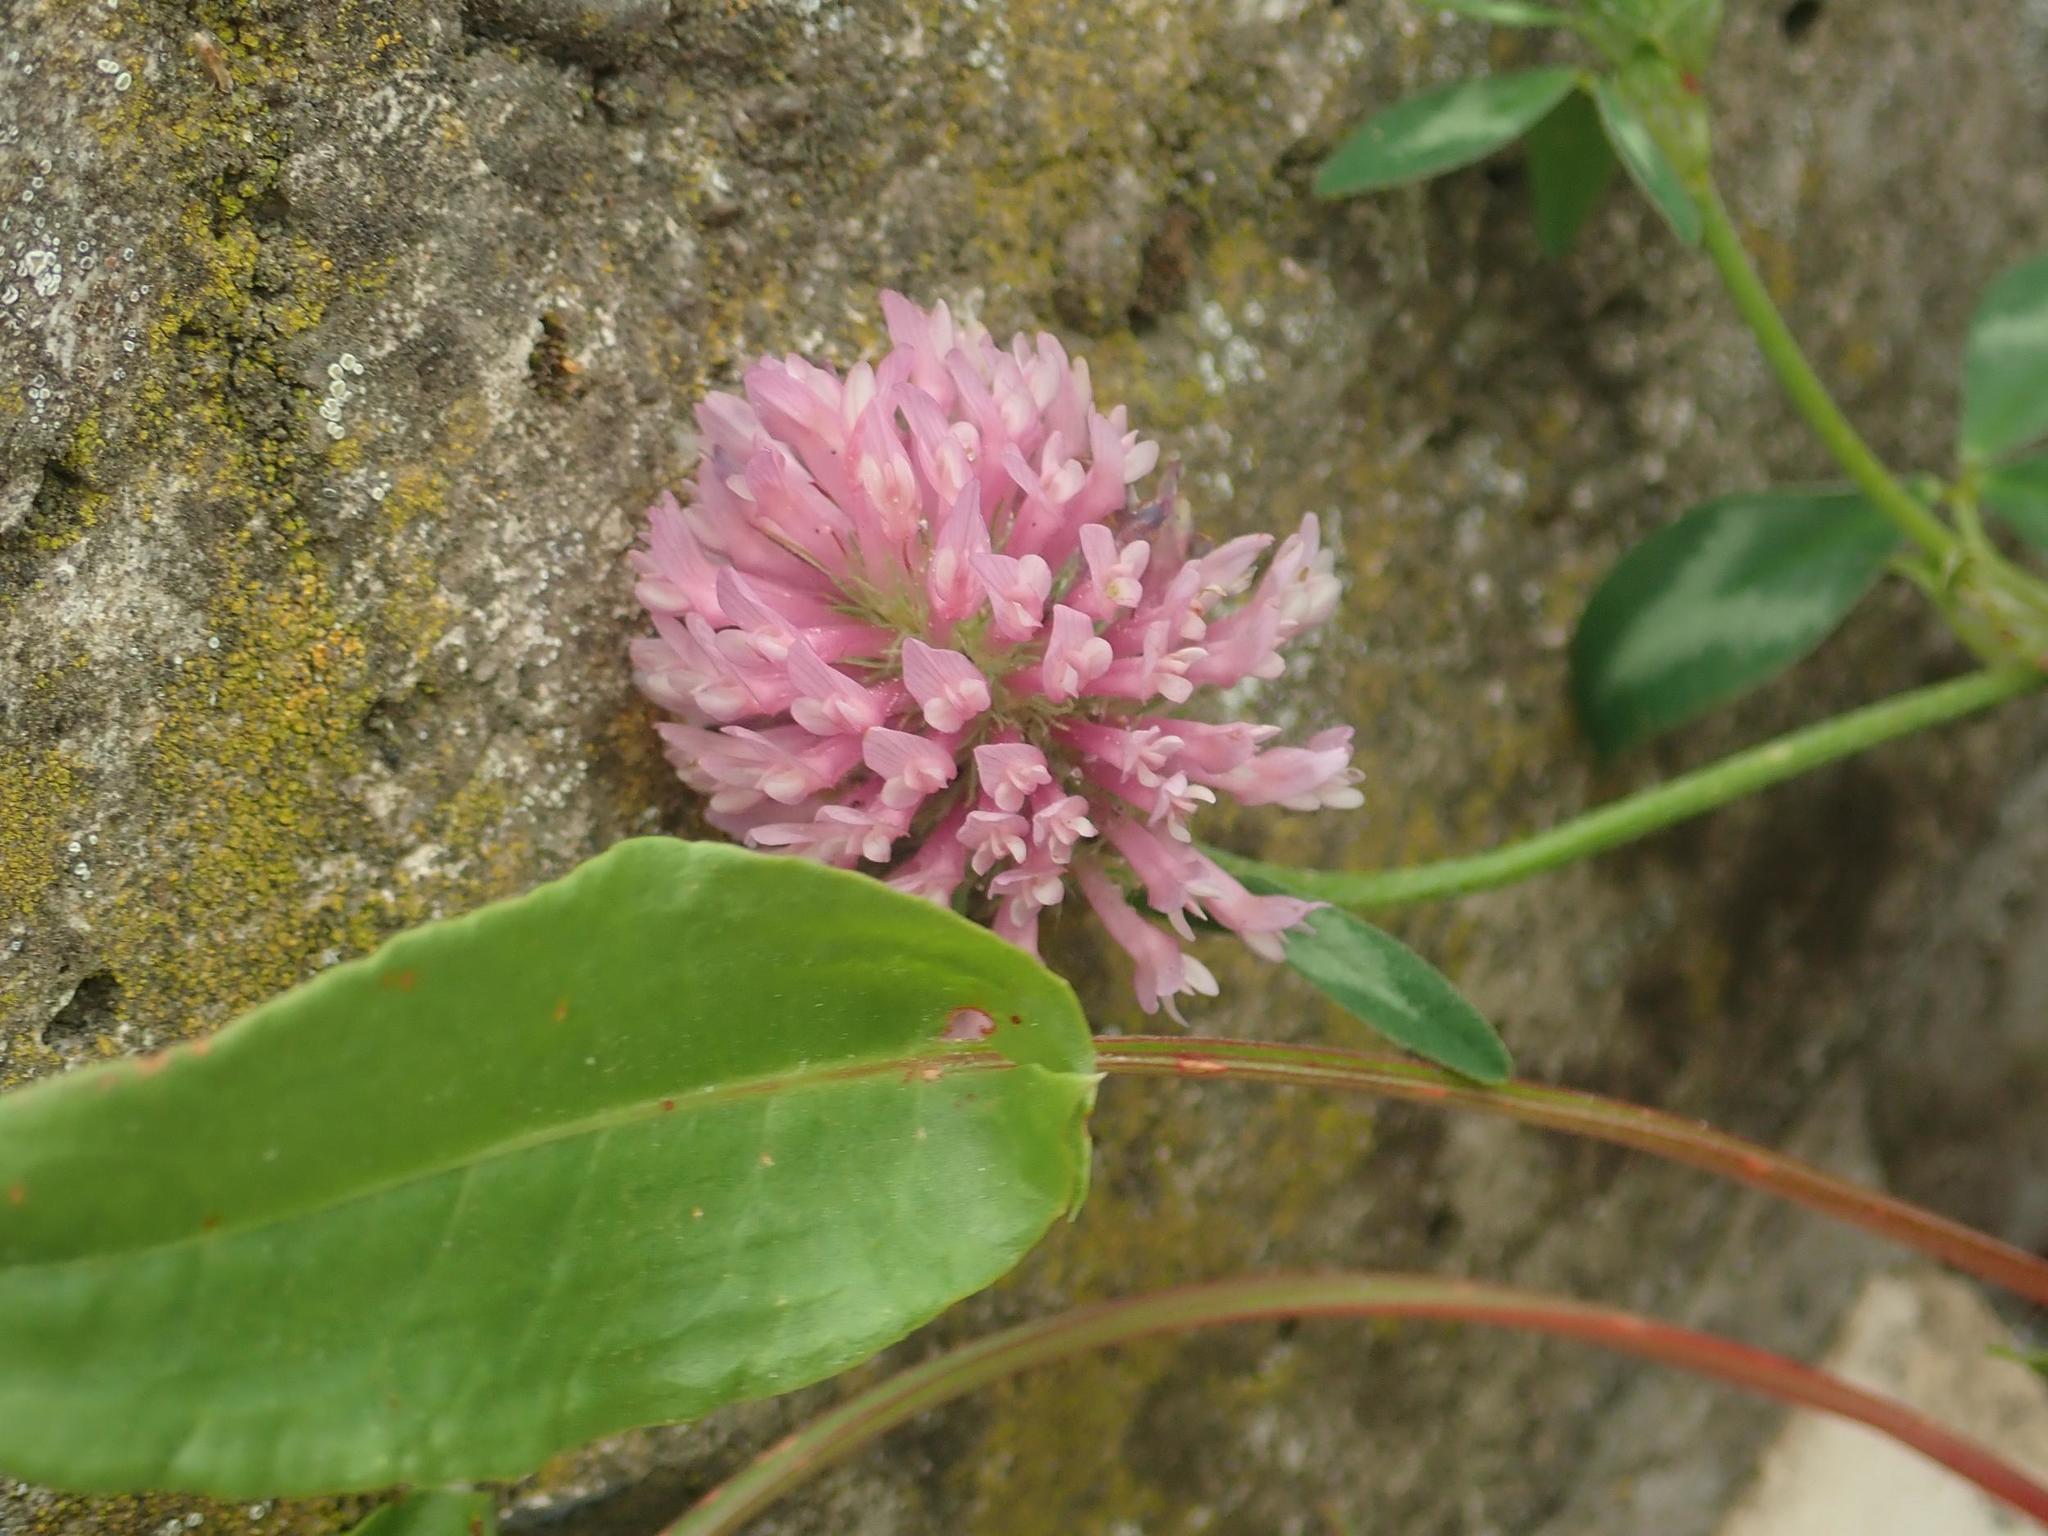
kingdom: Plantae
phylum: Tracheophyta
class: Magnoliopsida
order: Fabales
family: Fabaceae
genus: Trifolium
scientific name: Trifolium pratense
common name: Red clover
